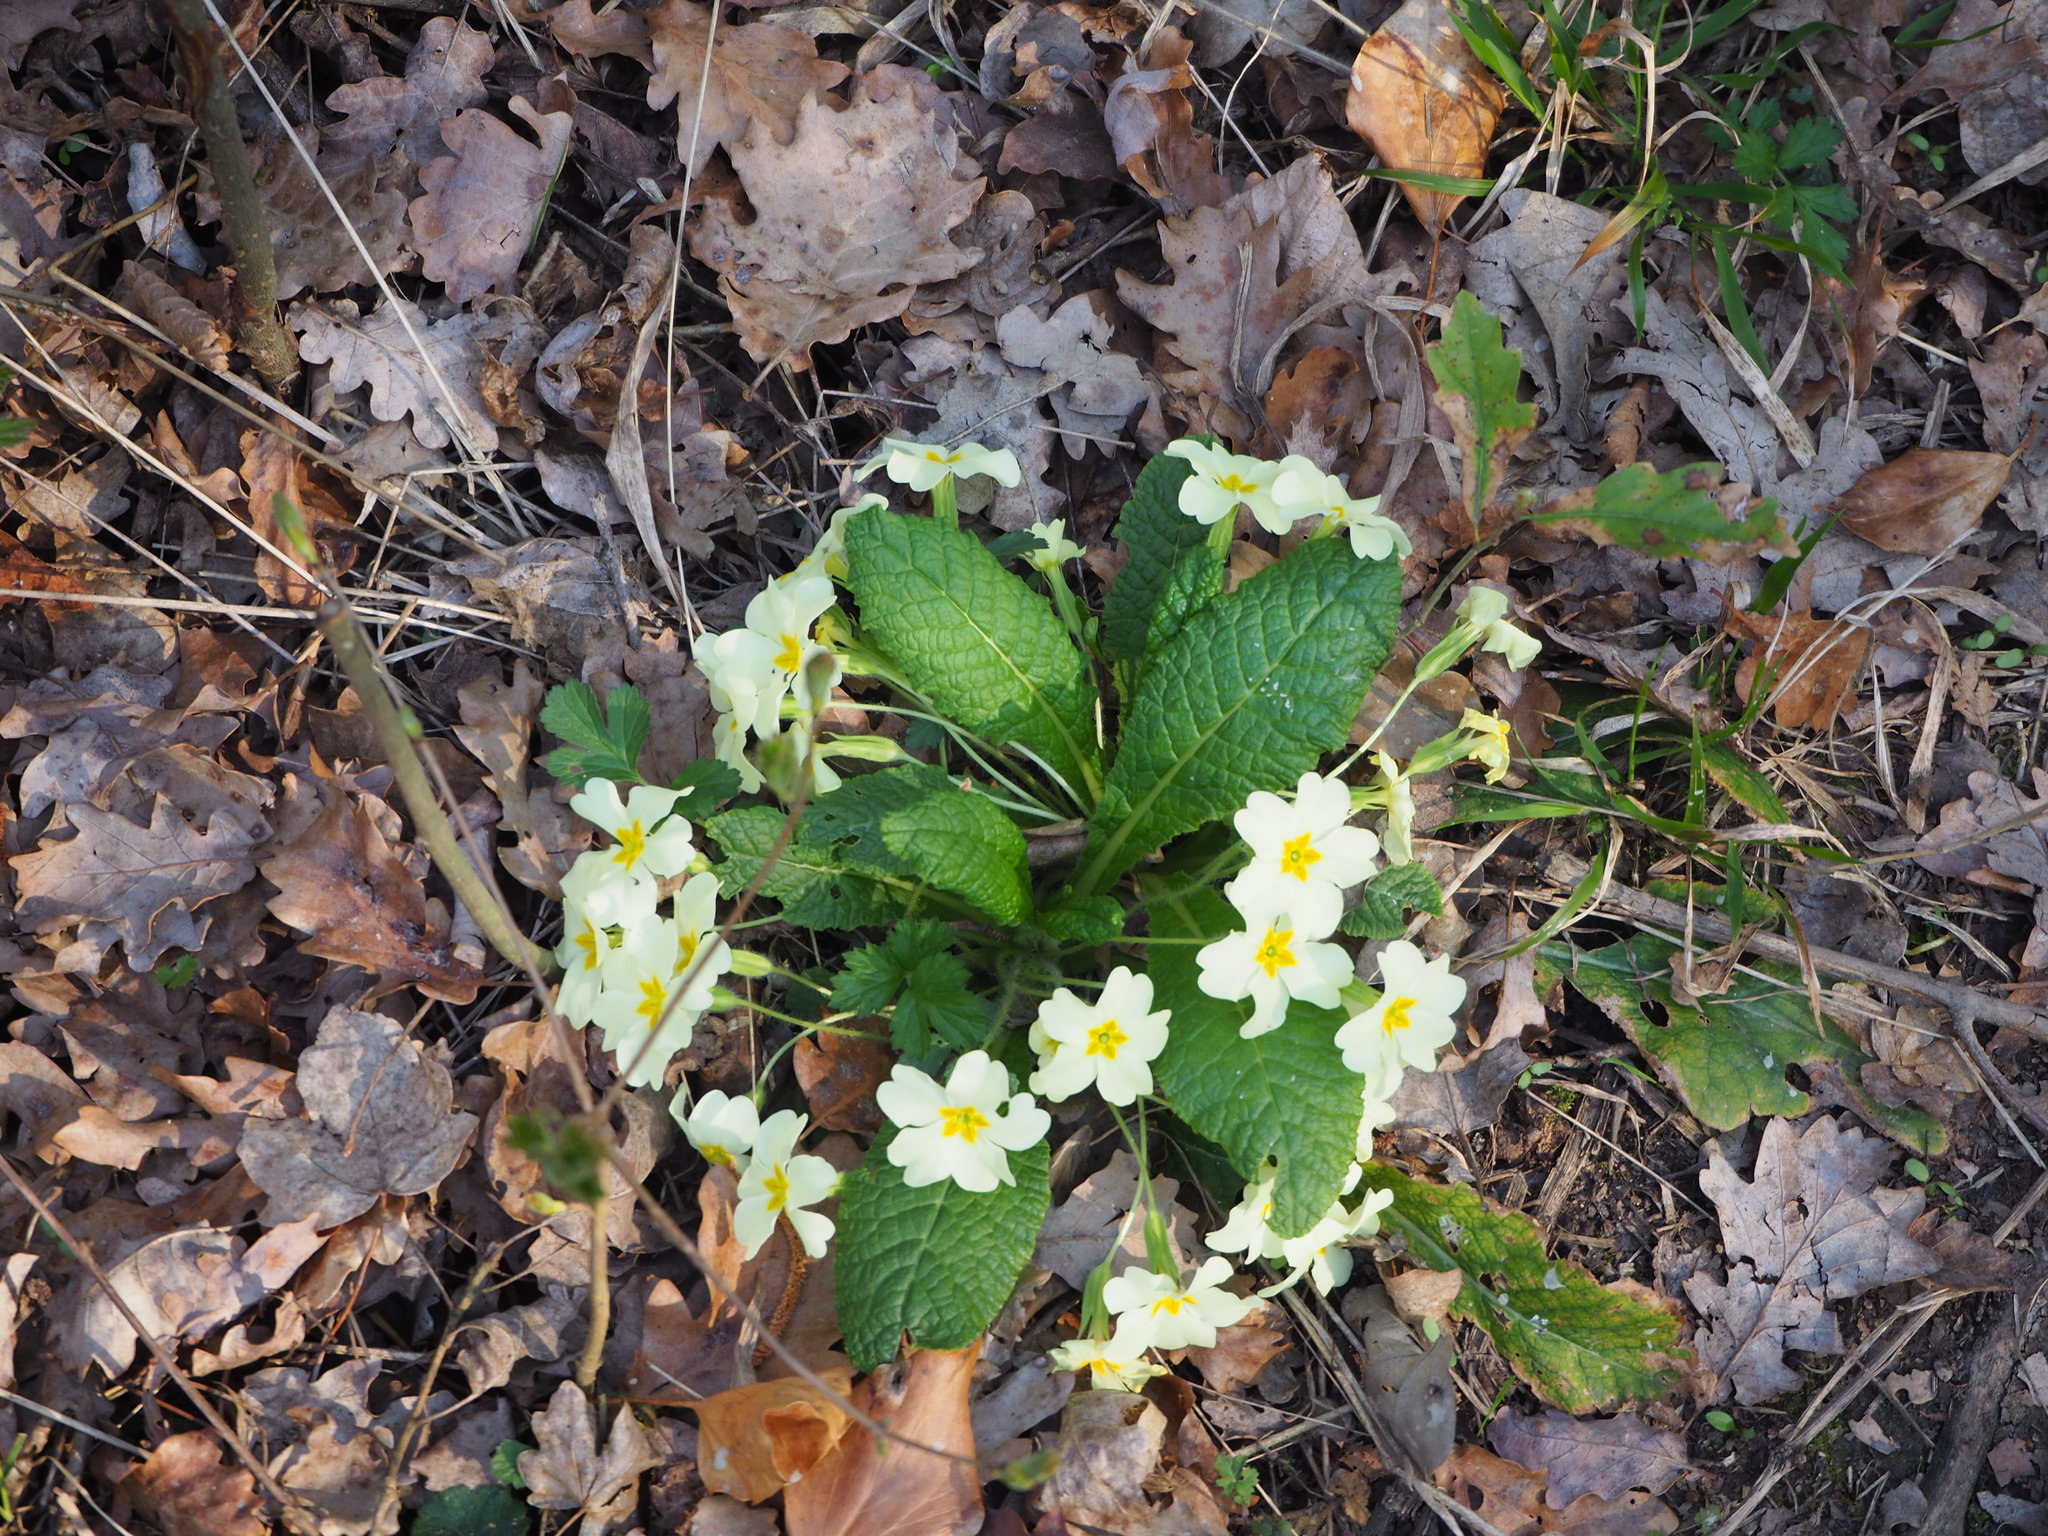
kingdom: Plantae
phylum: Tracheophyta
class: Magnoliopsida
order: Ericales
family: Primulaceae
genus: Primula
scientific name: Primula vulgaris
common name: Primrose
